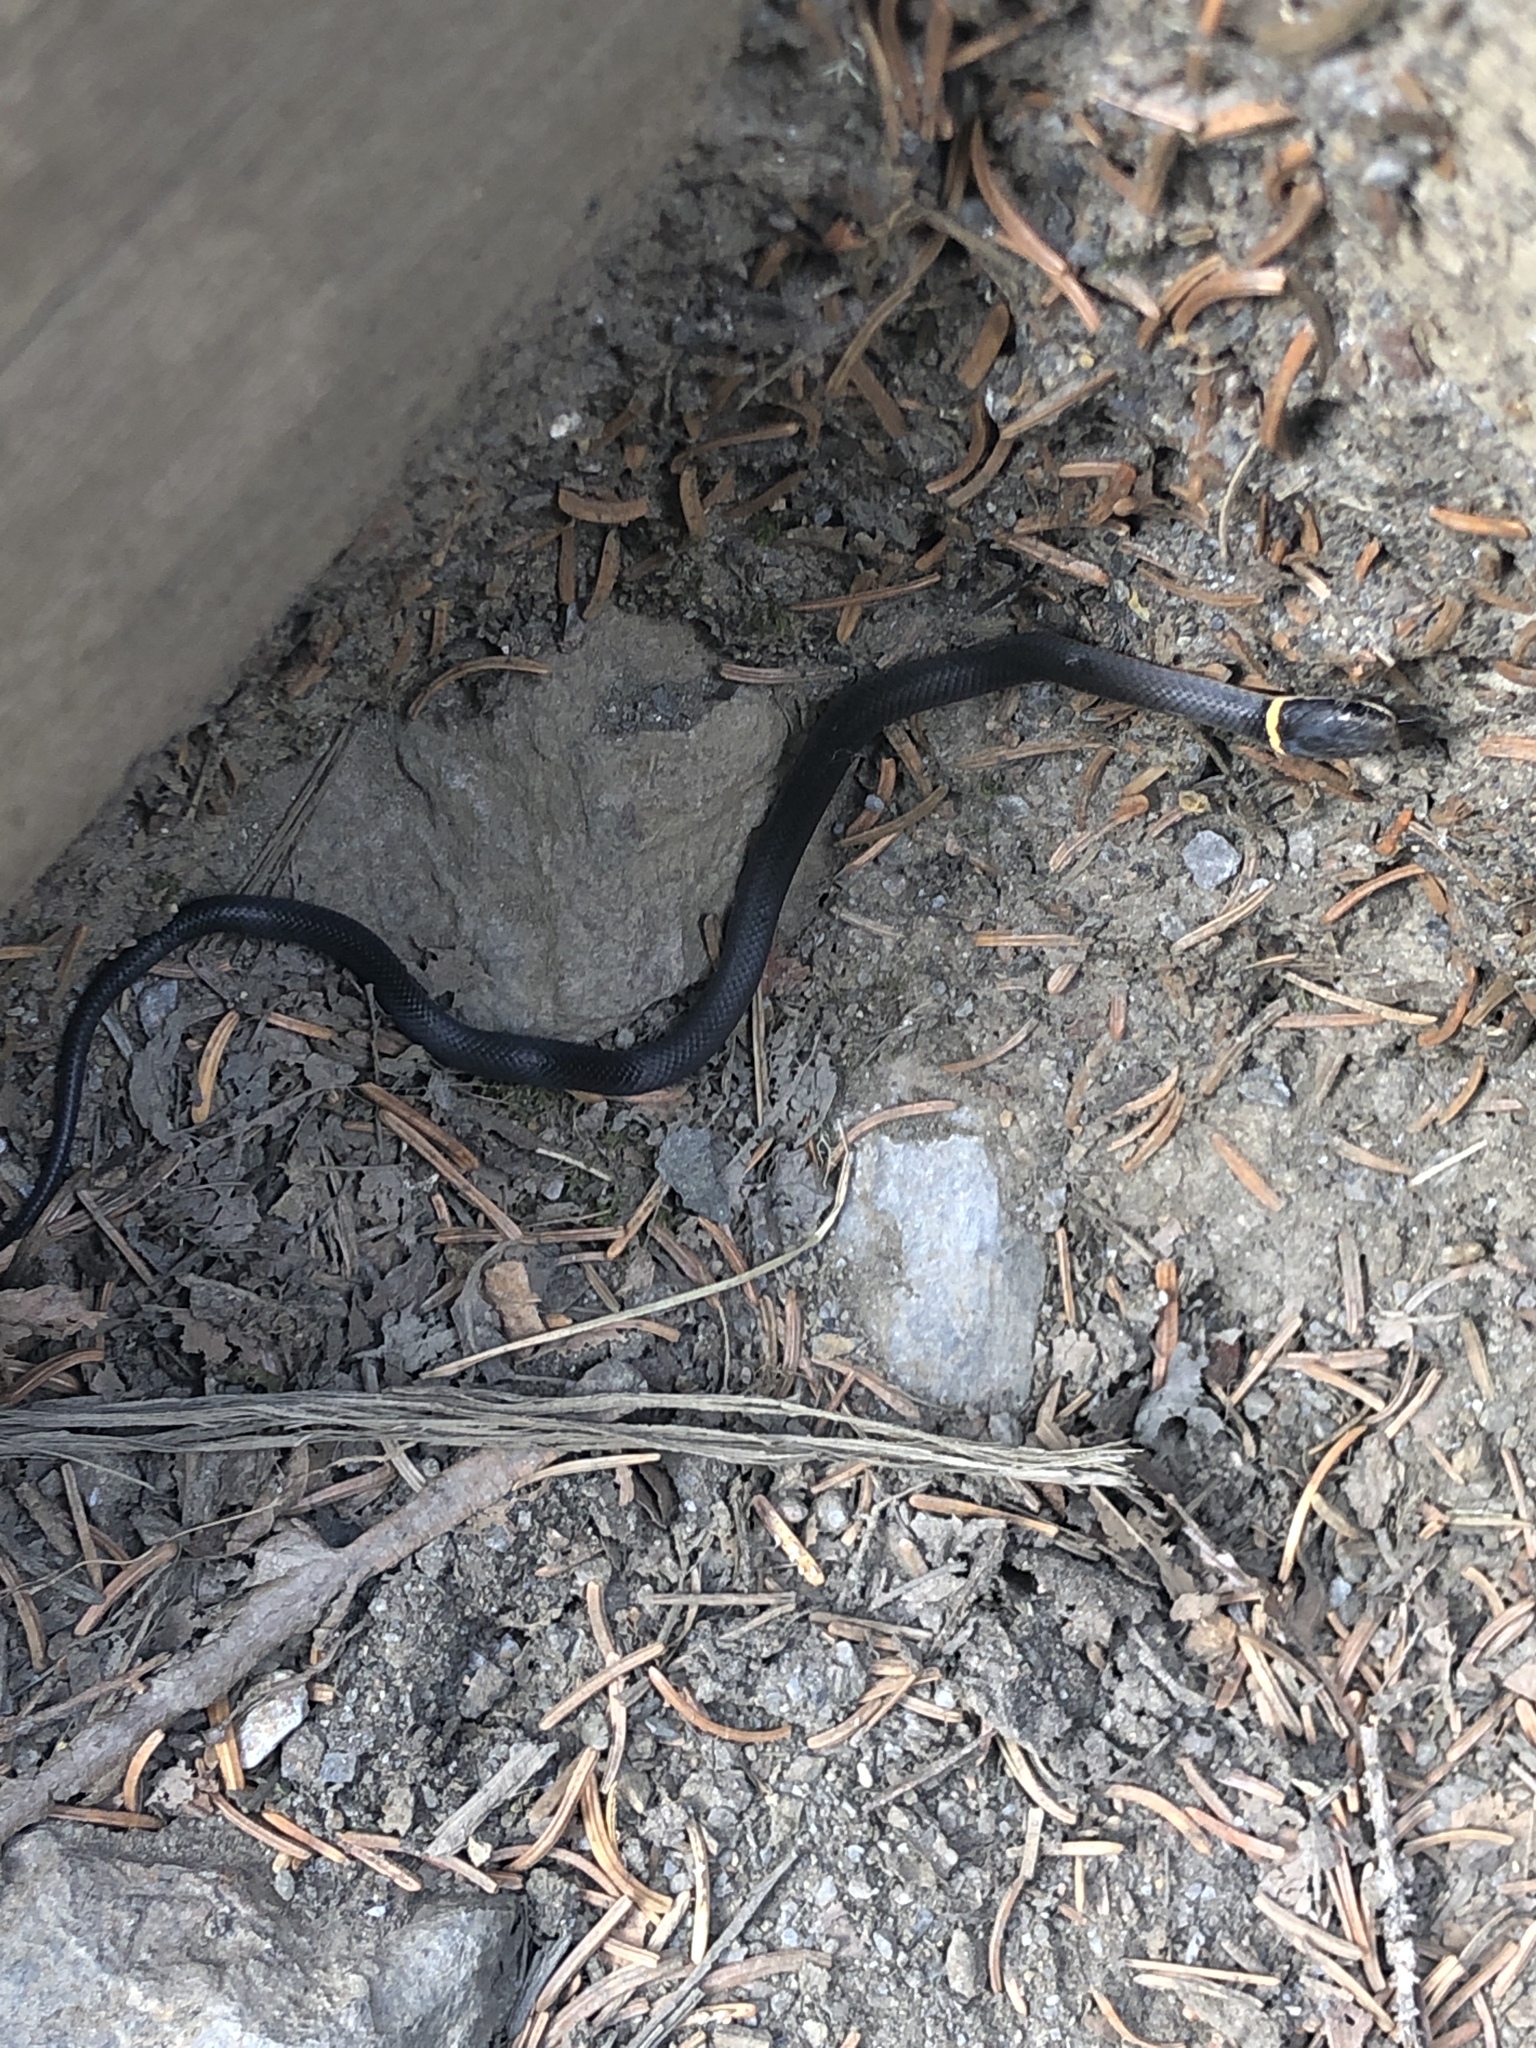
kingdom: Animalia
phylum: Chordata
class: Squamata
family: Colubridae
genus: Diadophis
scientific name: Diadophis punctatus
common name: Ringneck snake
